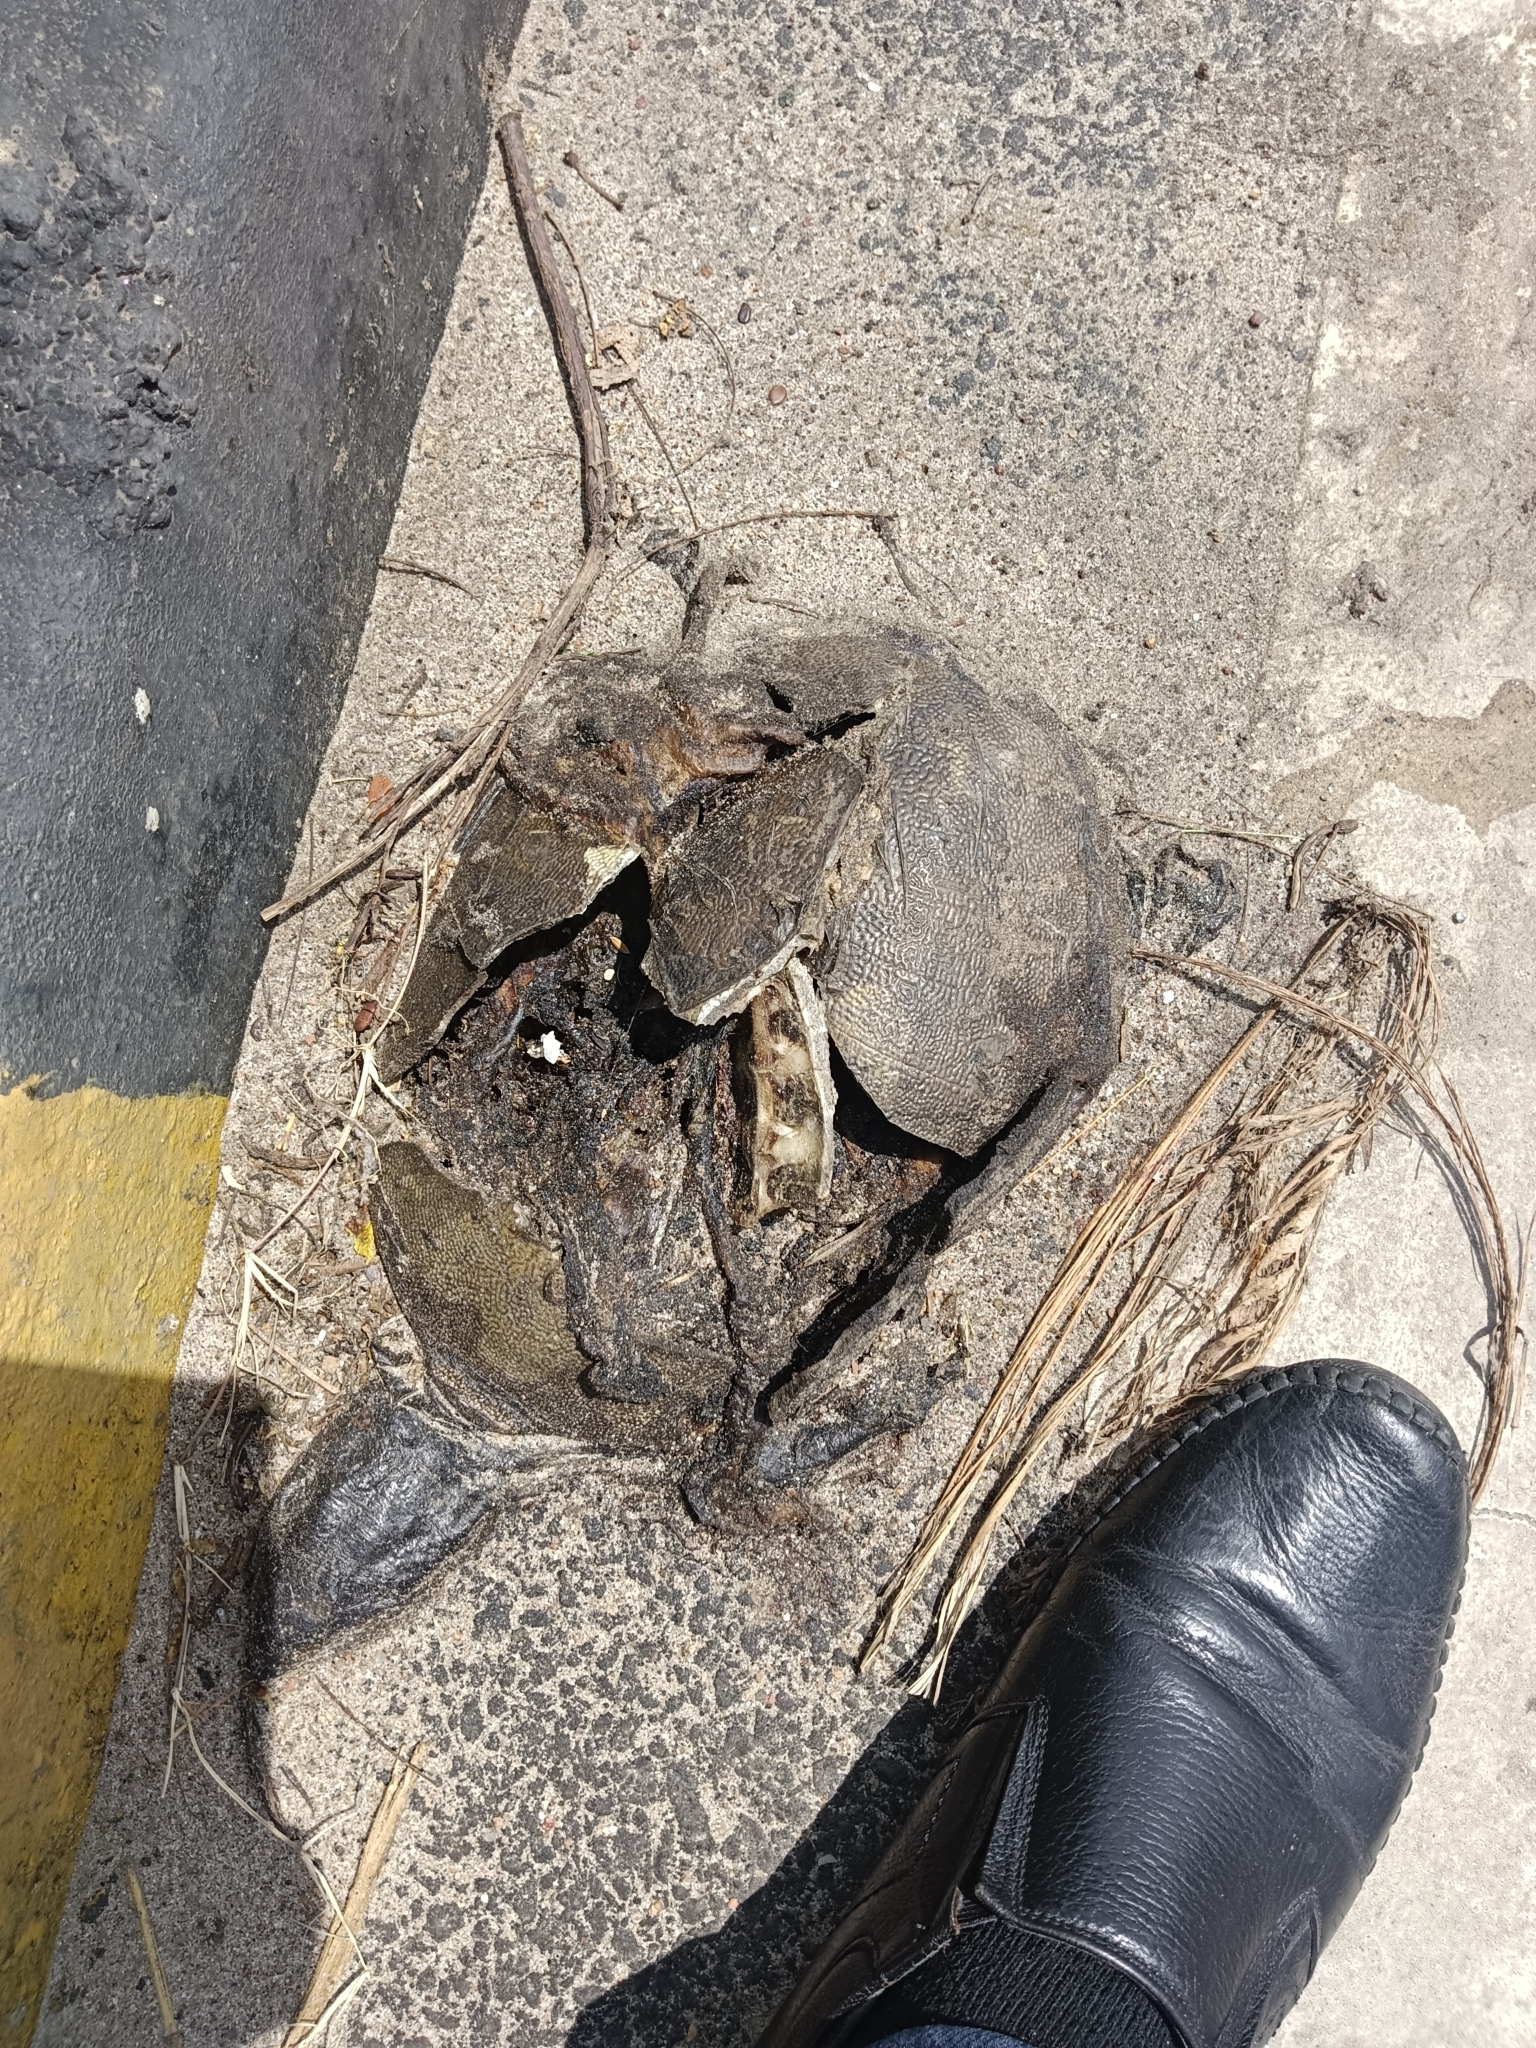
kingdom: Animalia
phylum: Chordata
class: Testudines
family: Trionychidae
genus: Lissemys
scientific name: Lissemys punctata
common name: Indian flap-shelled turtle
